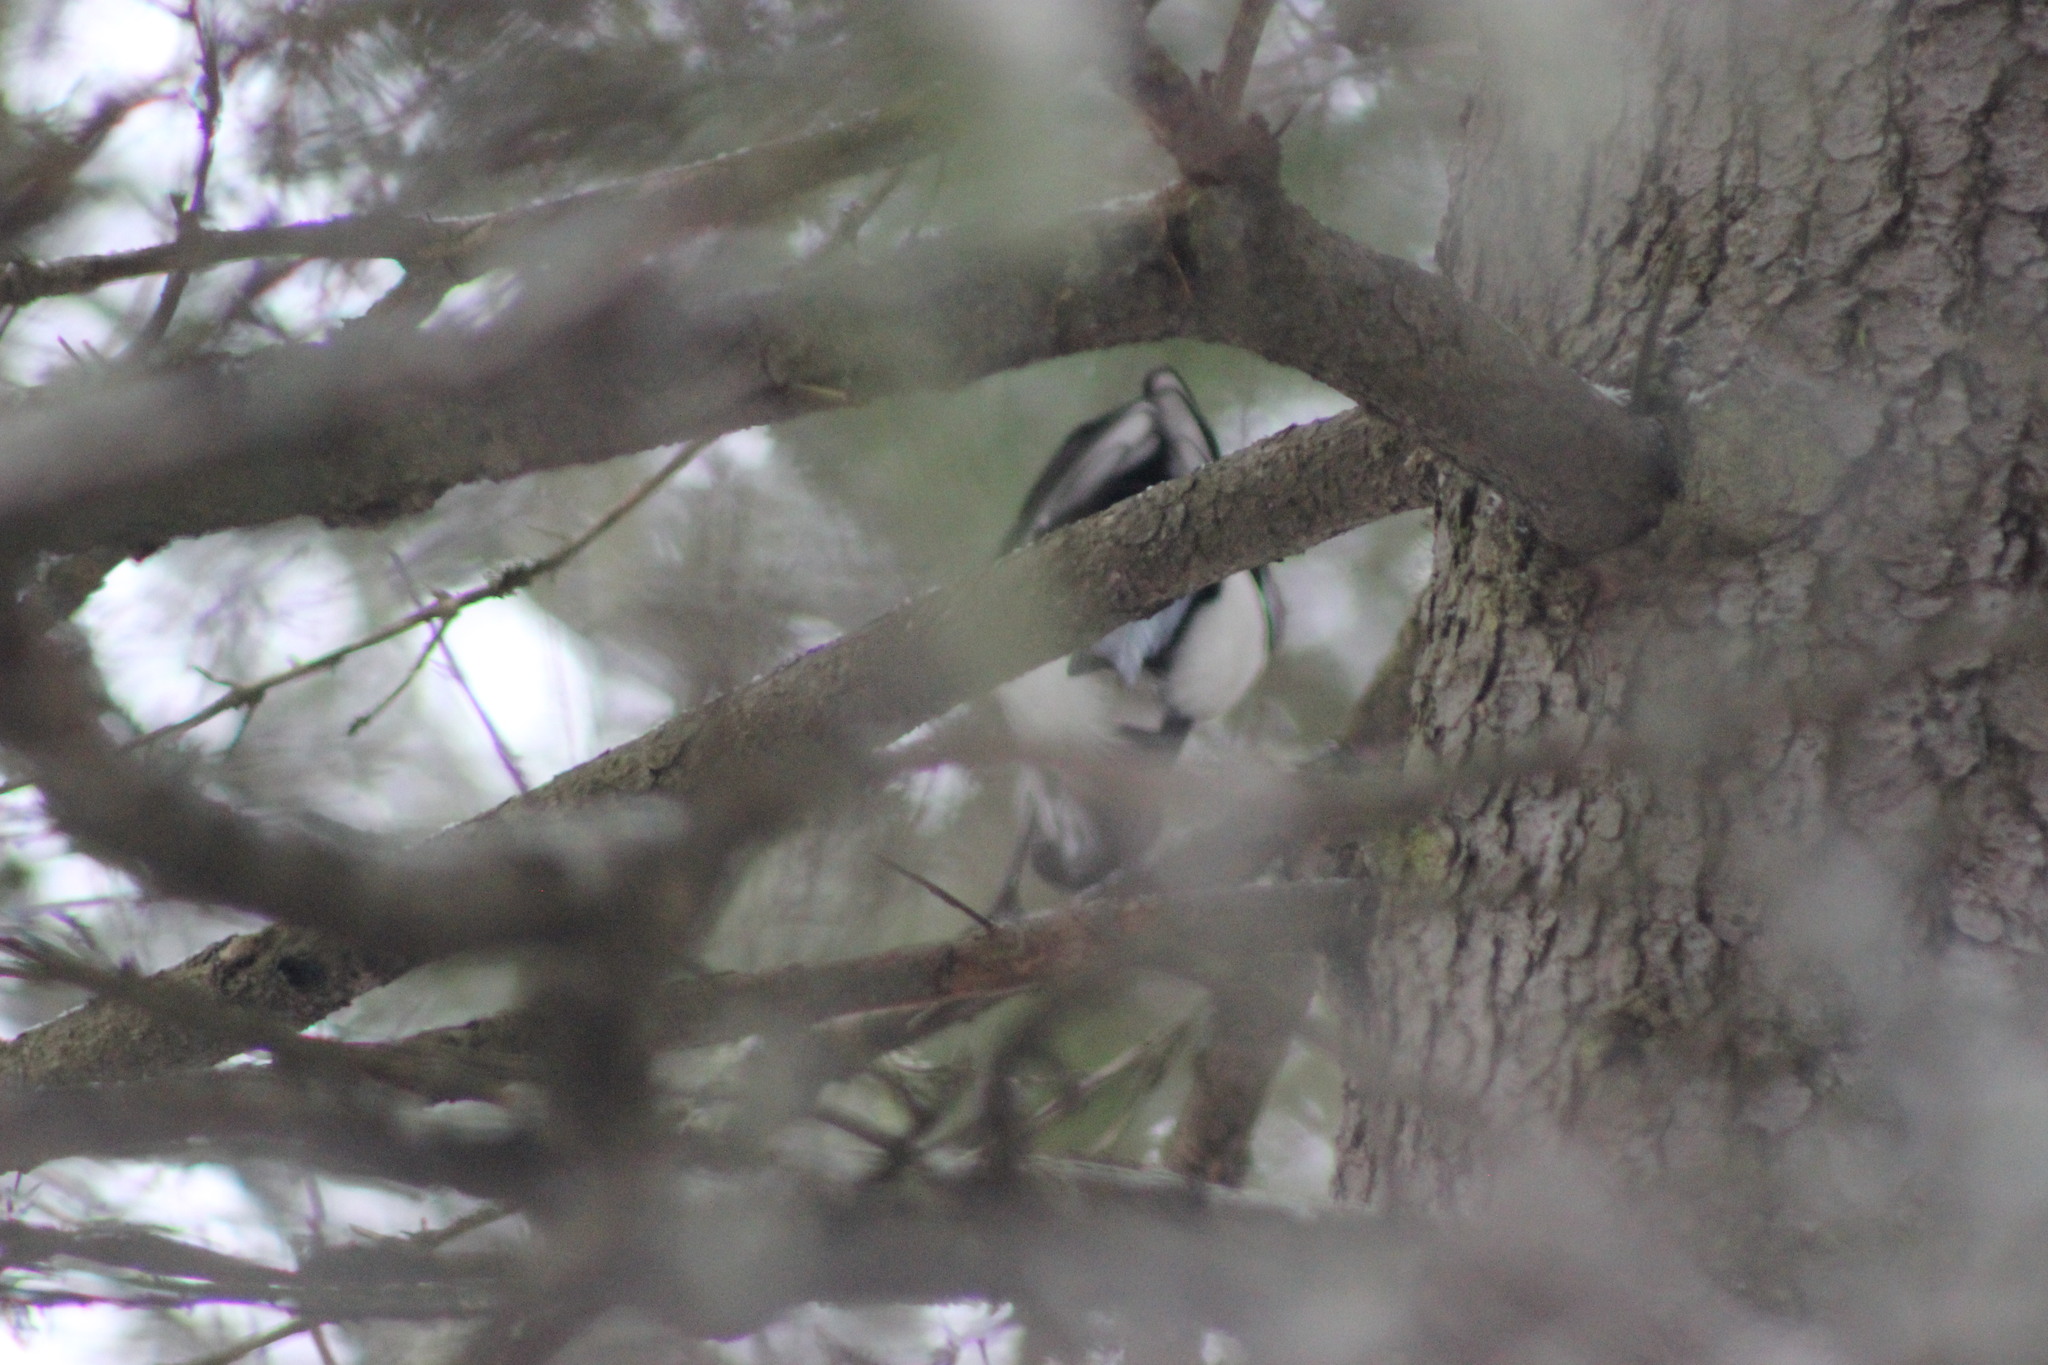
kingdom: Animalia
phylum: Chordata
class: Aves
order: Passeriformes
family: Corvidae
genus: Pica
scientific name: Pica pica
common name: Eurasian magpie
